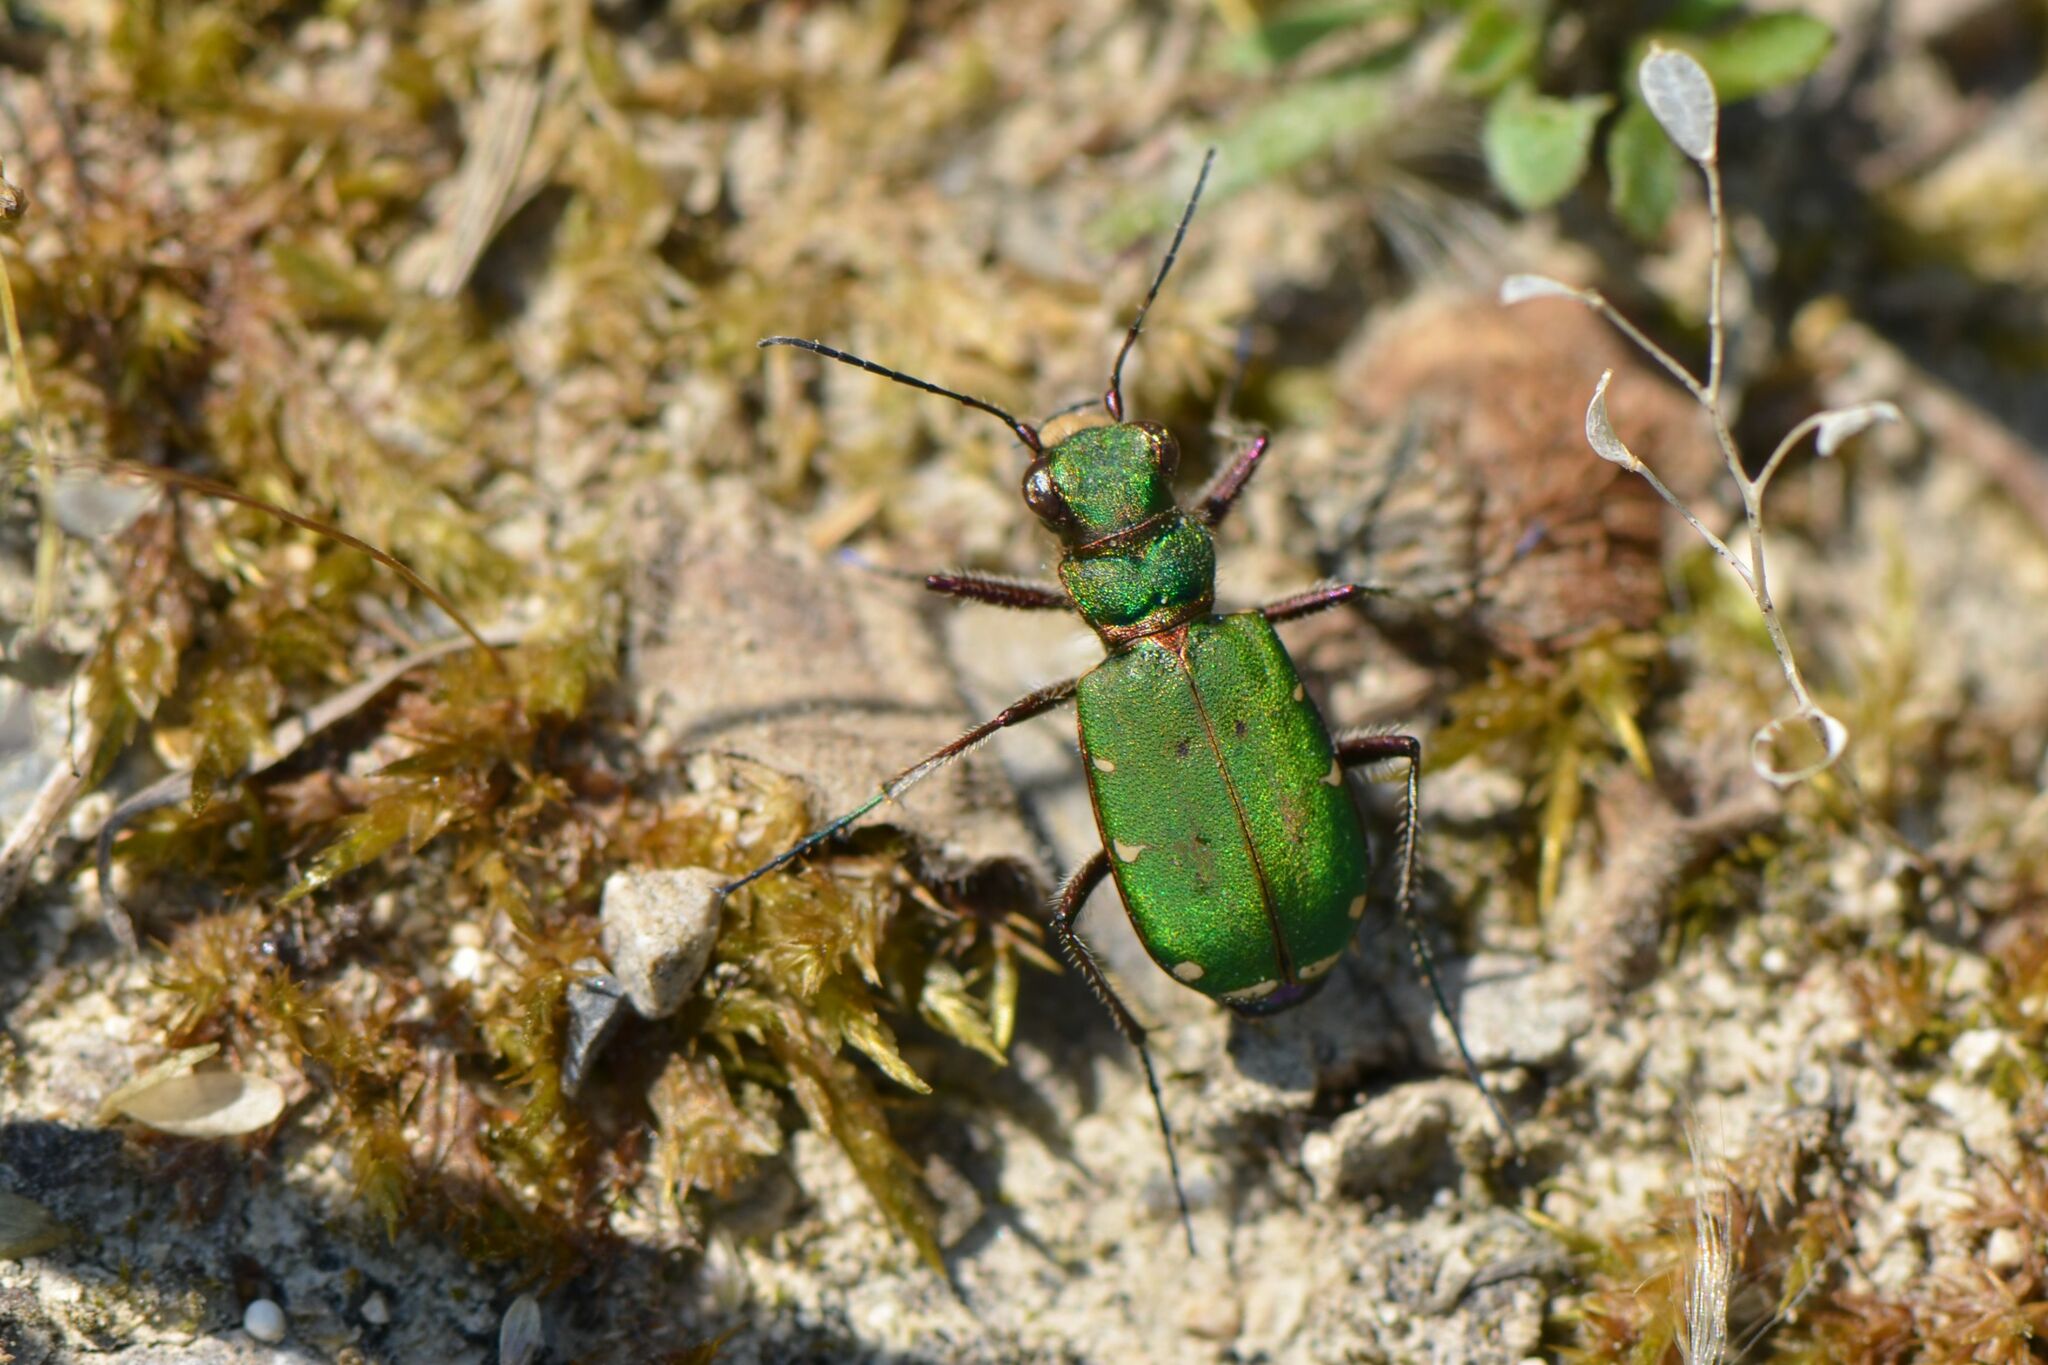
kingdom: Animalia
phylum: Arthropoda
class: Insecta
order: Coleoptera
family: Carabidae
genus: Cicindela
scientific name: Cicindela campestris
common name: Common tiger beetle
